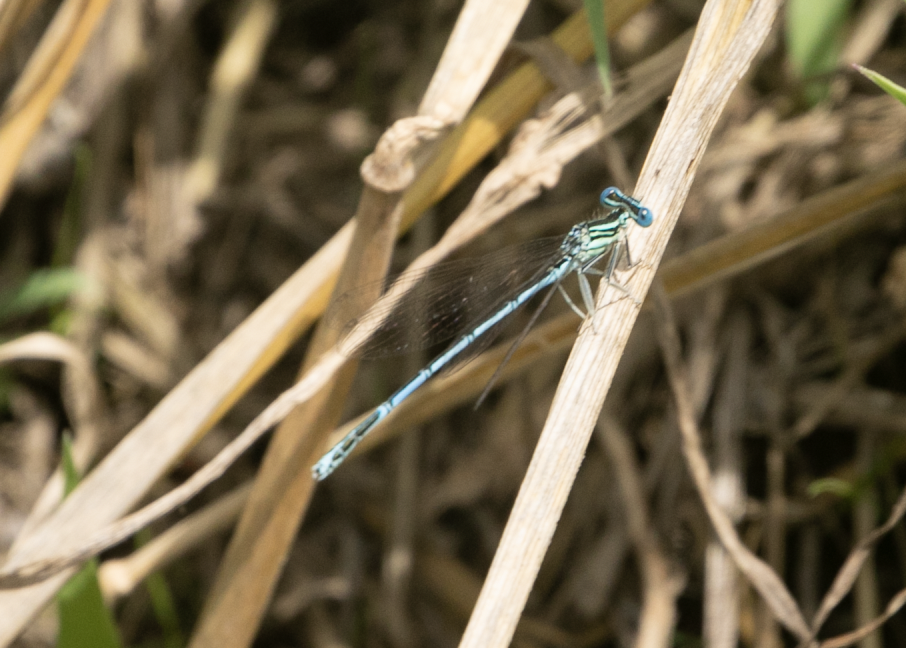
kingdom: Animalia
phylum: Arthropoda
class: Insecta
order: Odonata
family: Platycnemididae
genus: Platycnemis
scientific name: Platycnemis pennipes
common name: White-legged damselfly
